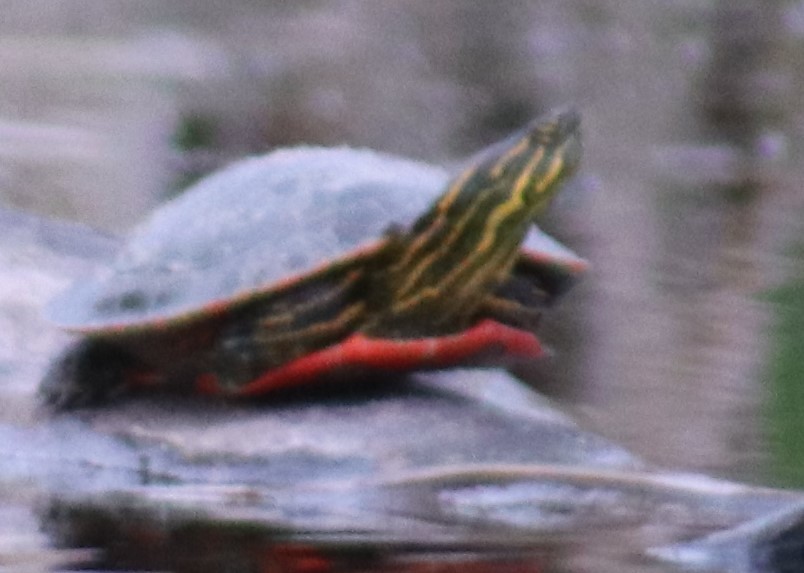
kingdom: Animalia
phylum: Chordata
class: Testudines
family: Emydidae
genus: Chrysemys
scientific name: Chrysemys picta
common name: Painted turtle
